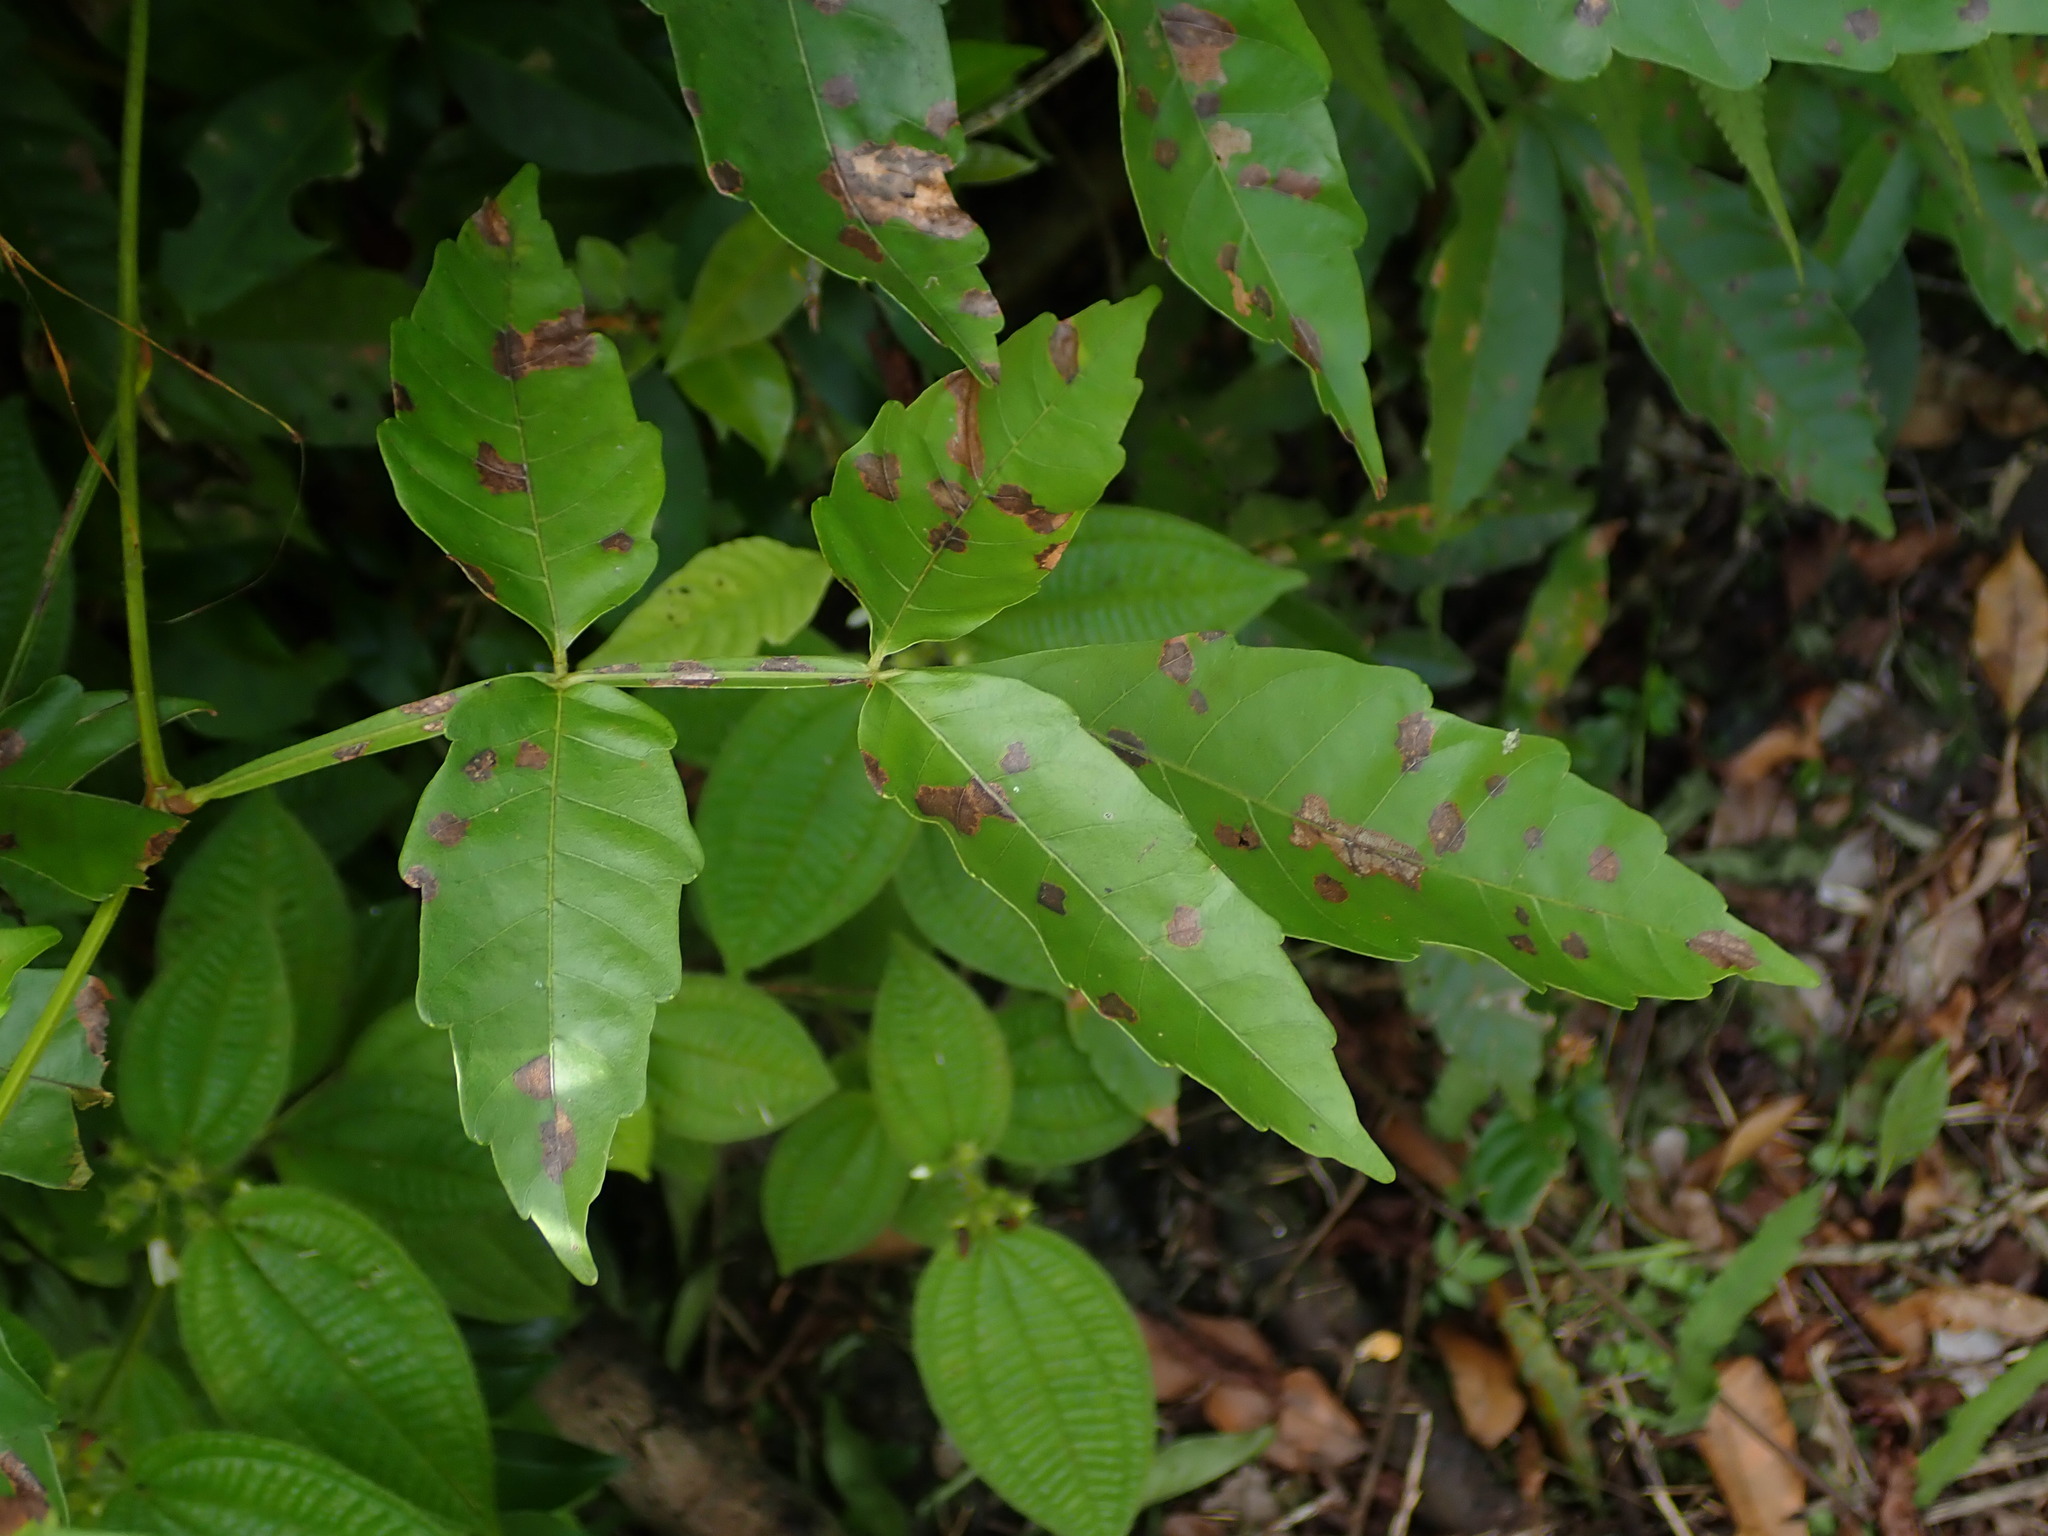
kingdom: Plantae
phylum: Tracheophyta
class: Magnoliopsida
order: Sapindales
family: Sapindaceae
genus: Paullinia
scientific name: Paullinia pinnata
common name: Barbasco
